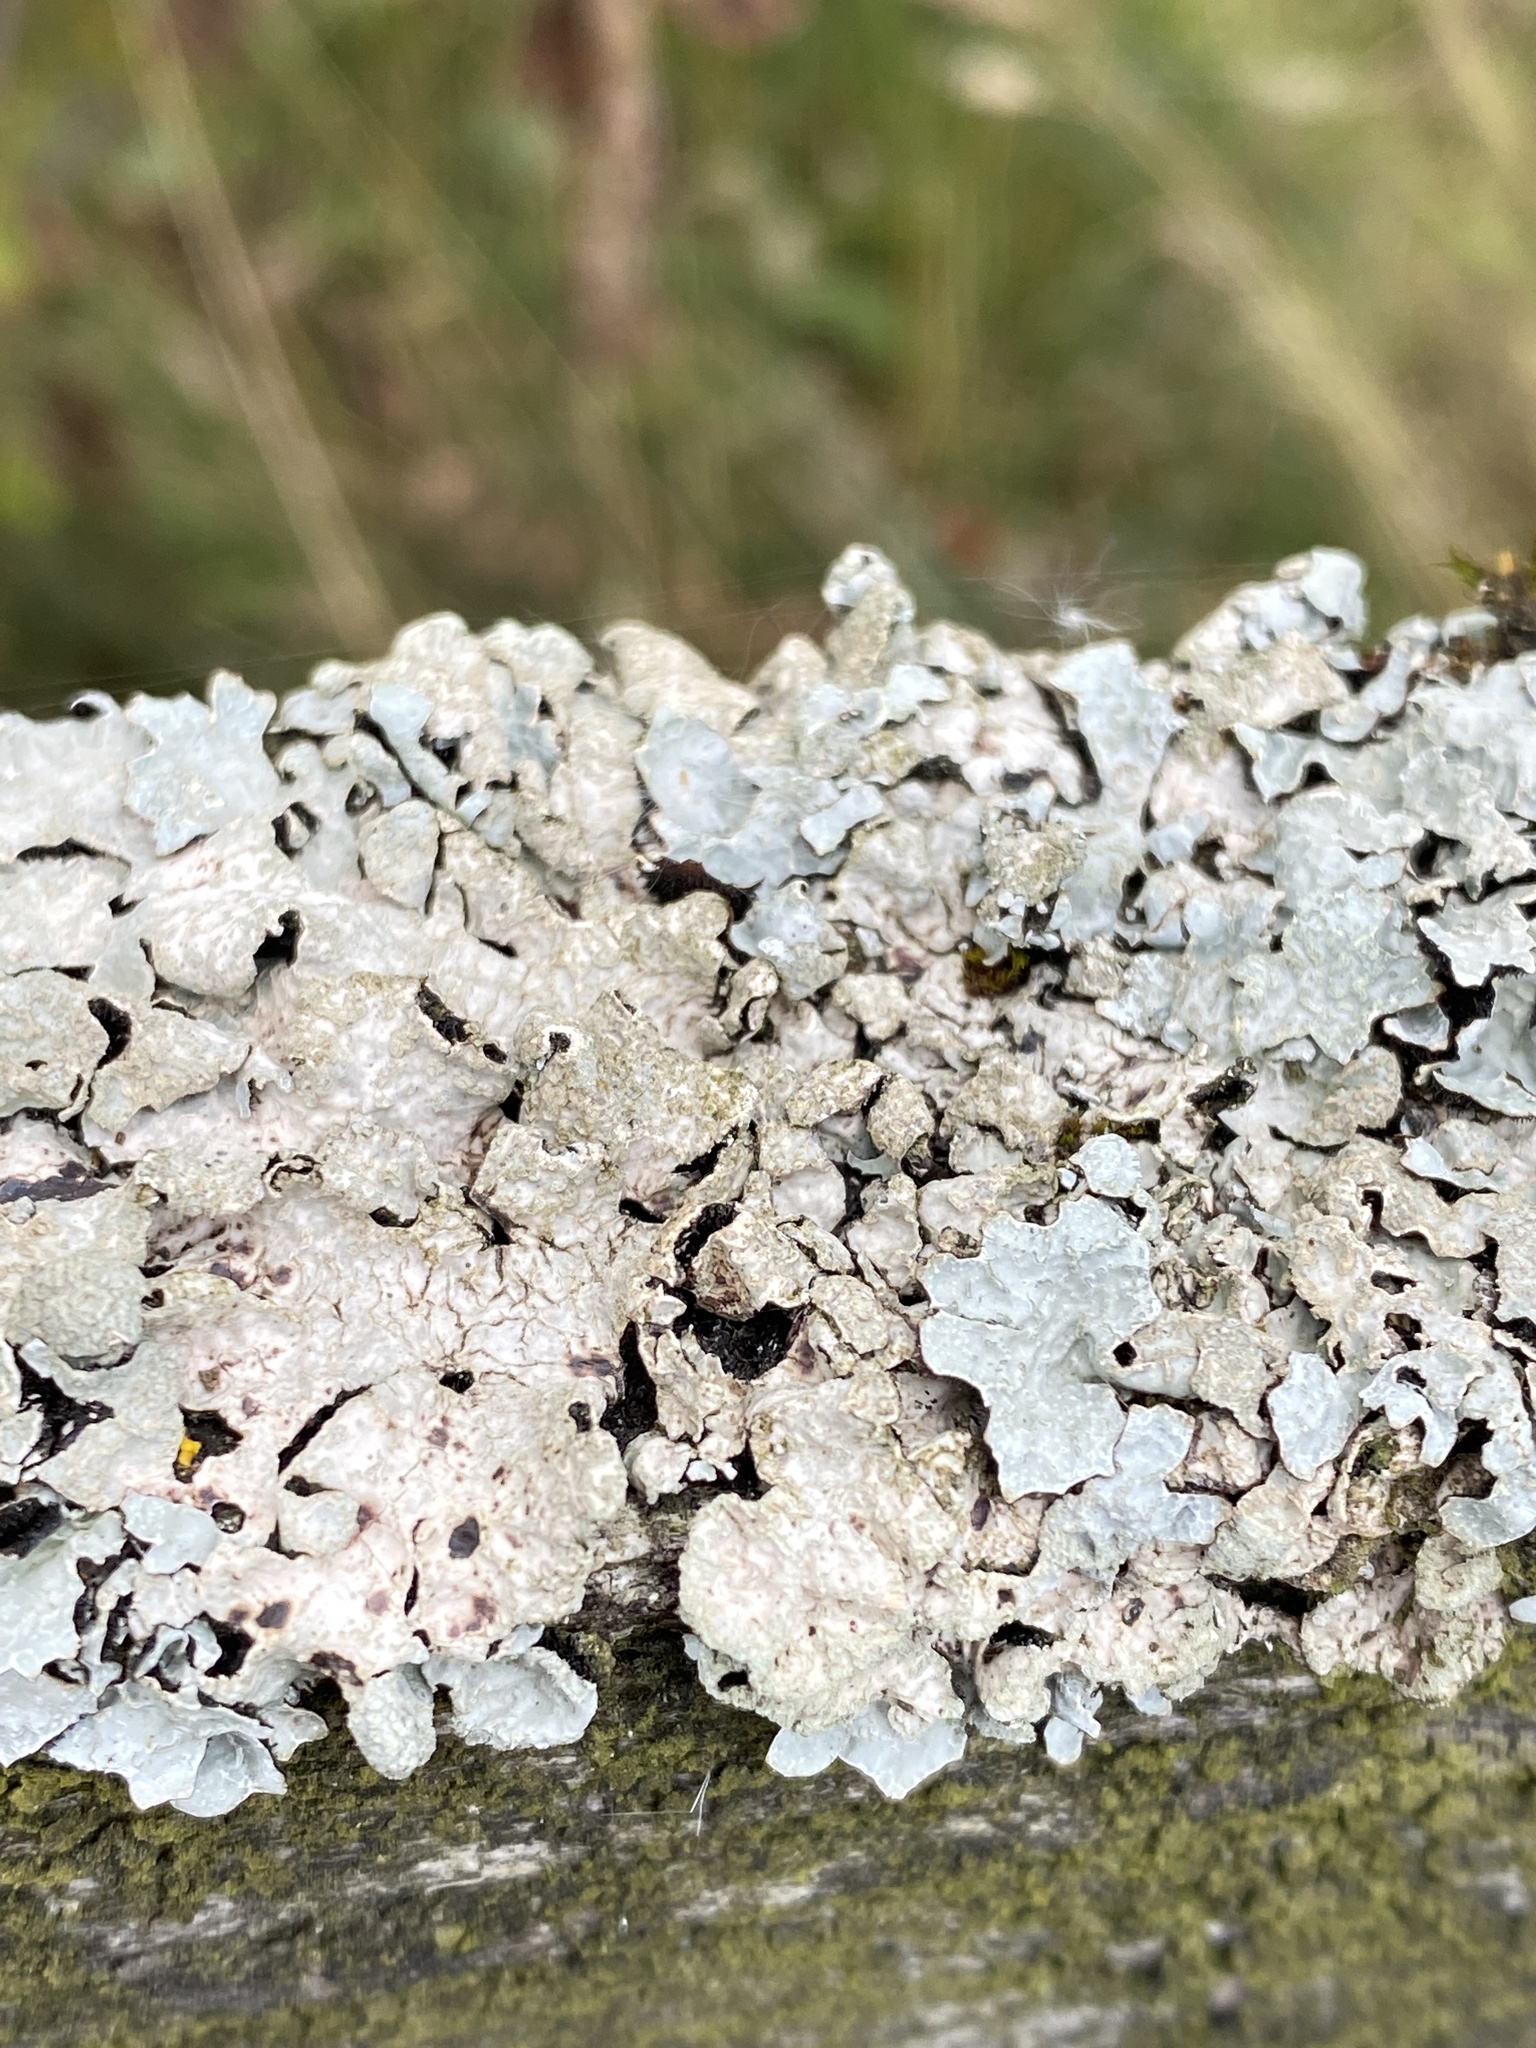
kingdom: Fungi
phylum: Ascomycota
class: Lecanoromycetes
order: Lecanorales
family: Parmeliaceae
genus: Parmelia
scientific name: Parmelia sulcata
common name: Netted shield lichen
